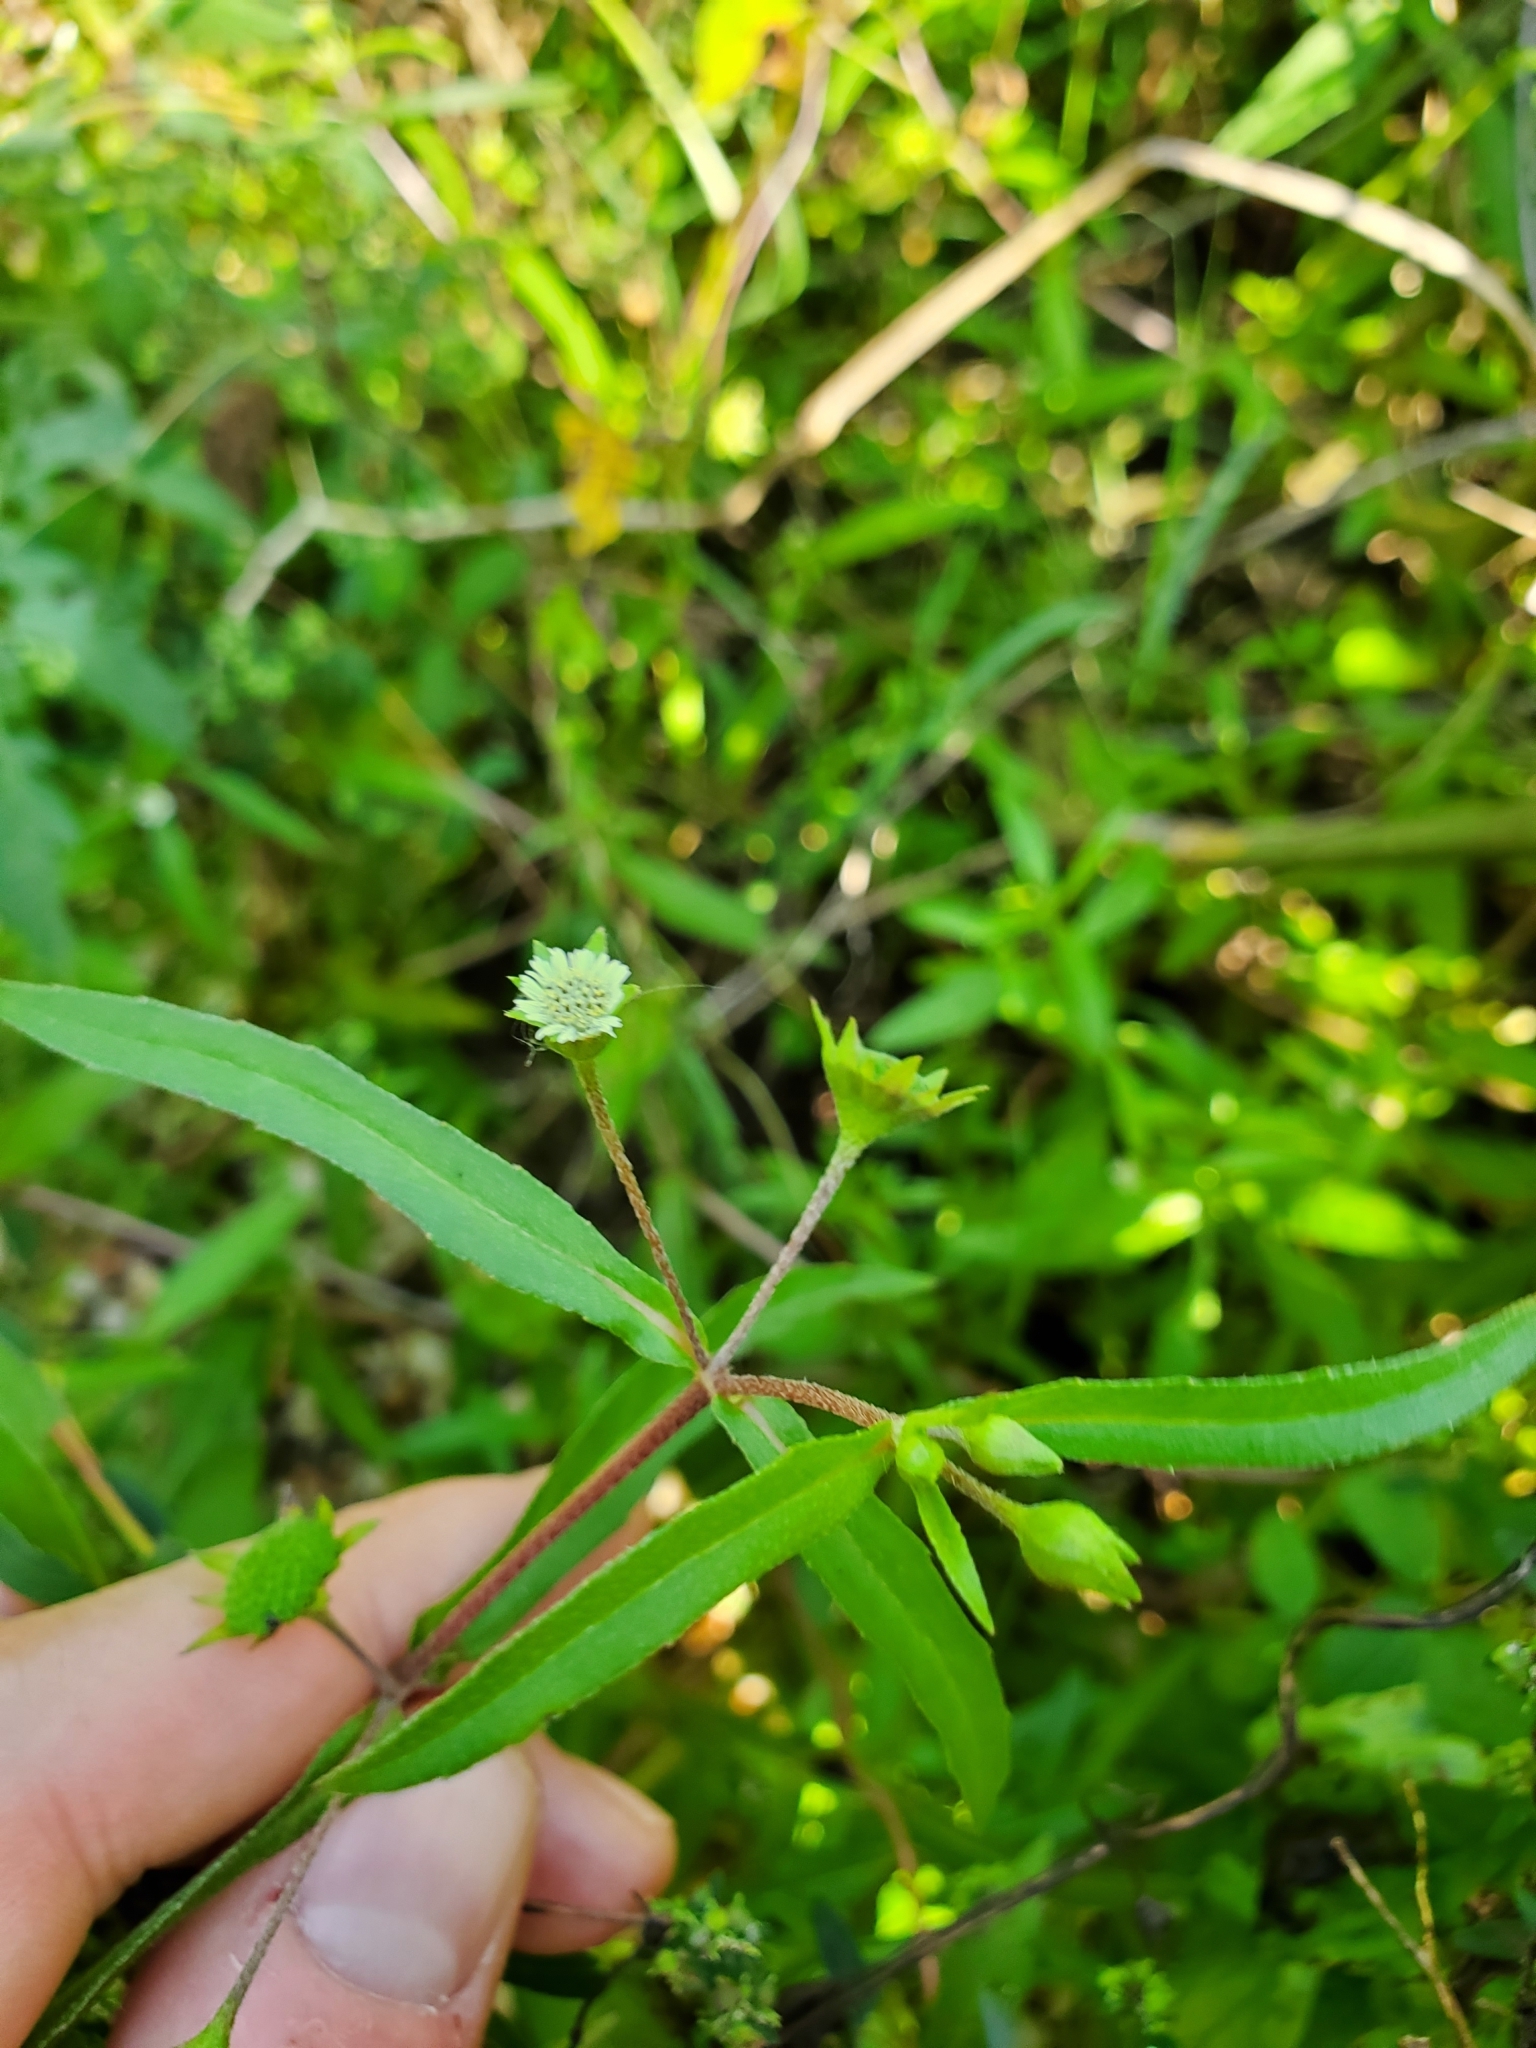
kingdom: Plantae
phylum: Tracheophyta
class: Magnoliopsida
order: Asterales
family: Asteraceae
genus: Eclipta
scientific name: Eclipta prostrata
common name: False daisy
